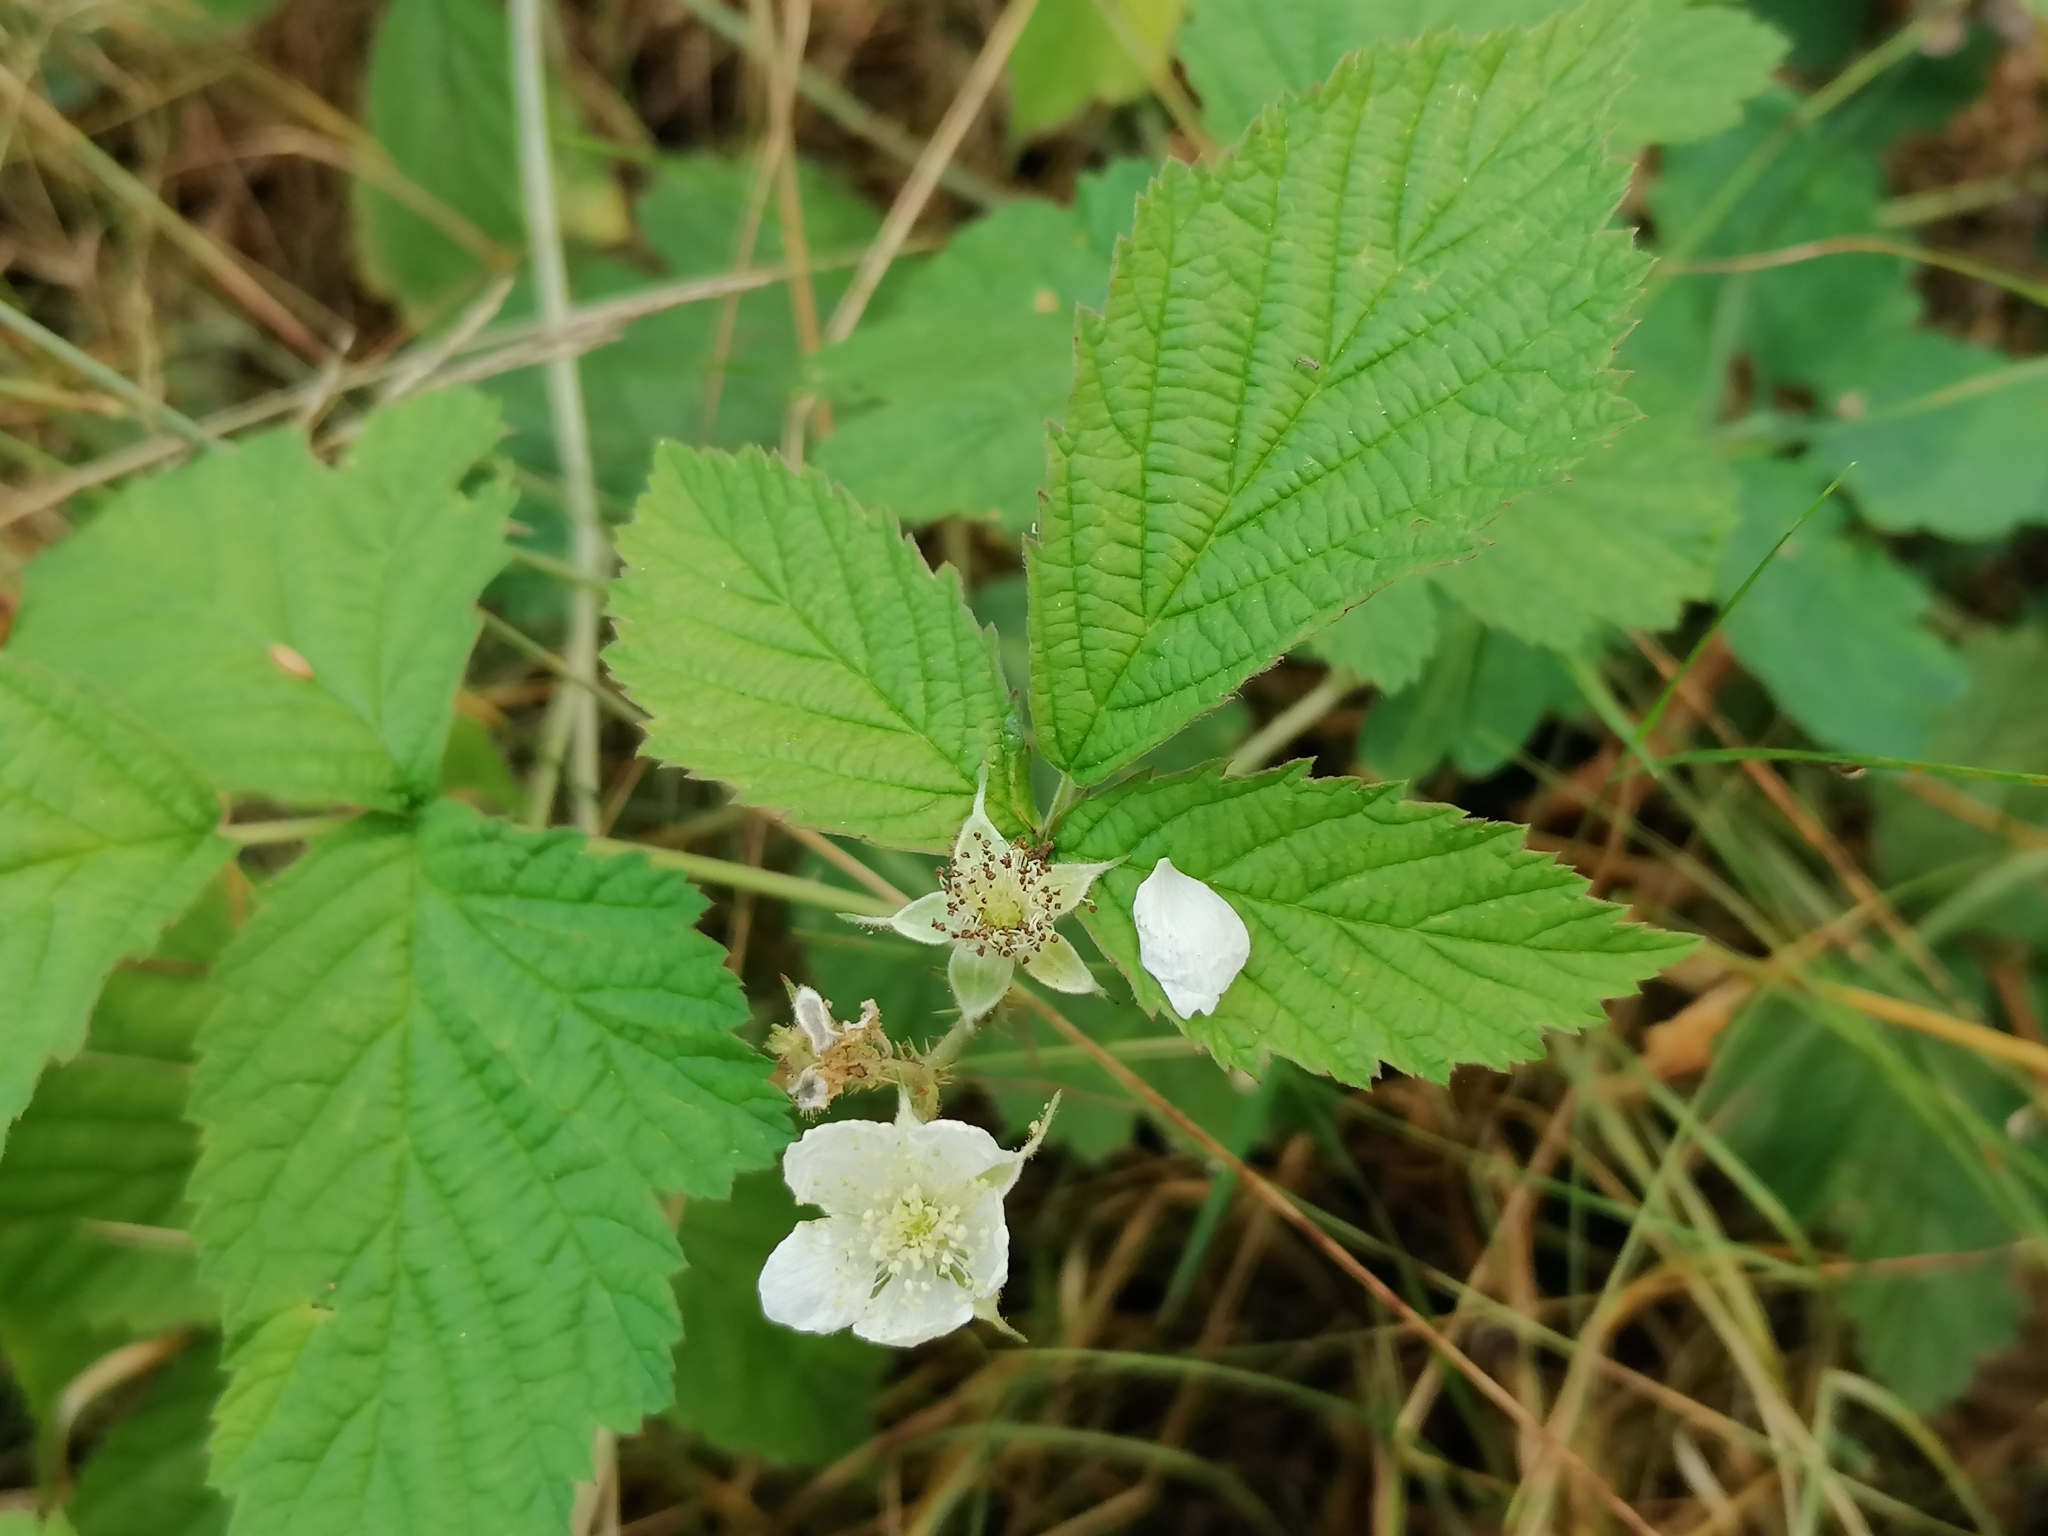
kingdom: Plantae
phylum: Tracheophyta
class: Magnoliopsida
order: Rosales
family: Rosaceae
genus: Rubus
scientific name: Rubus caesius
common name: Dewberry
